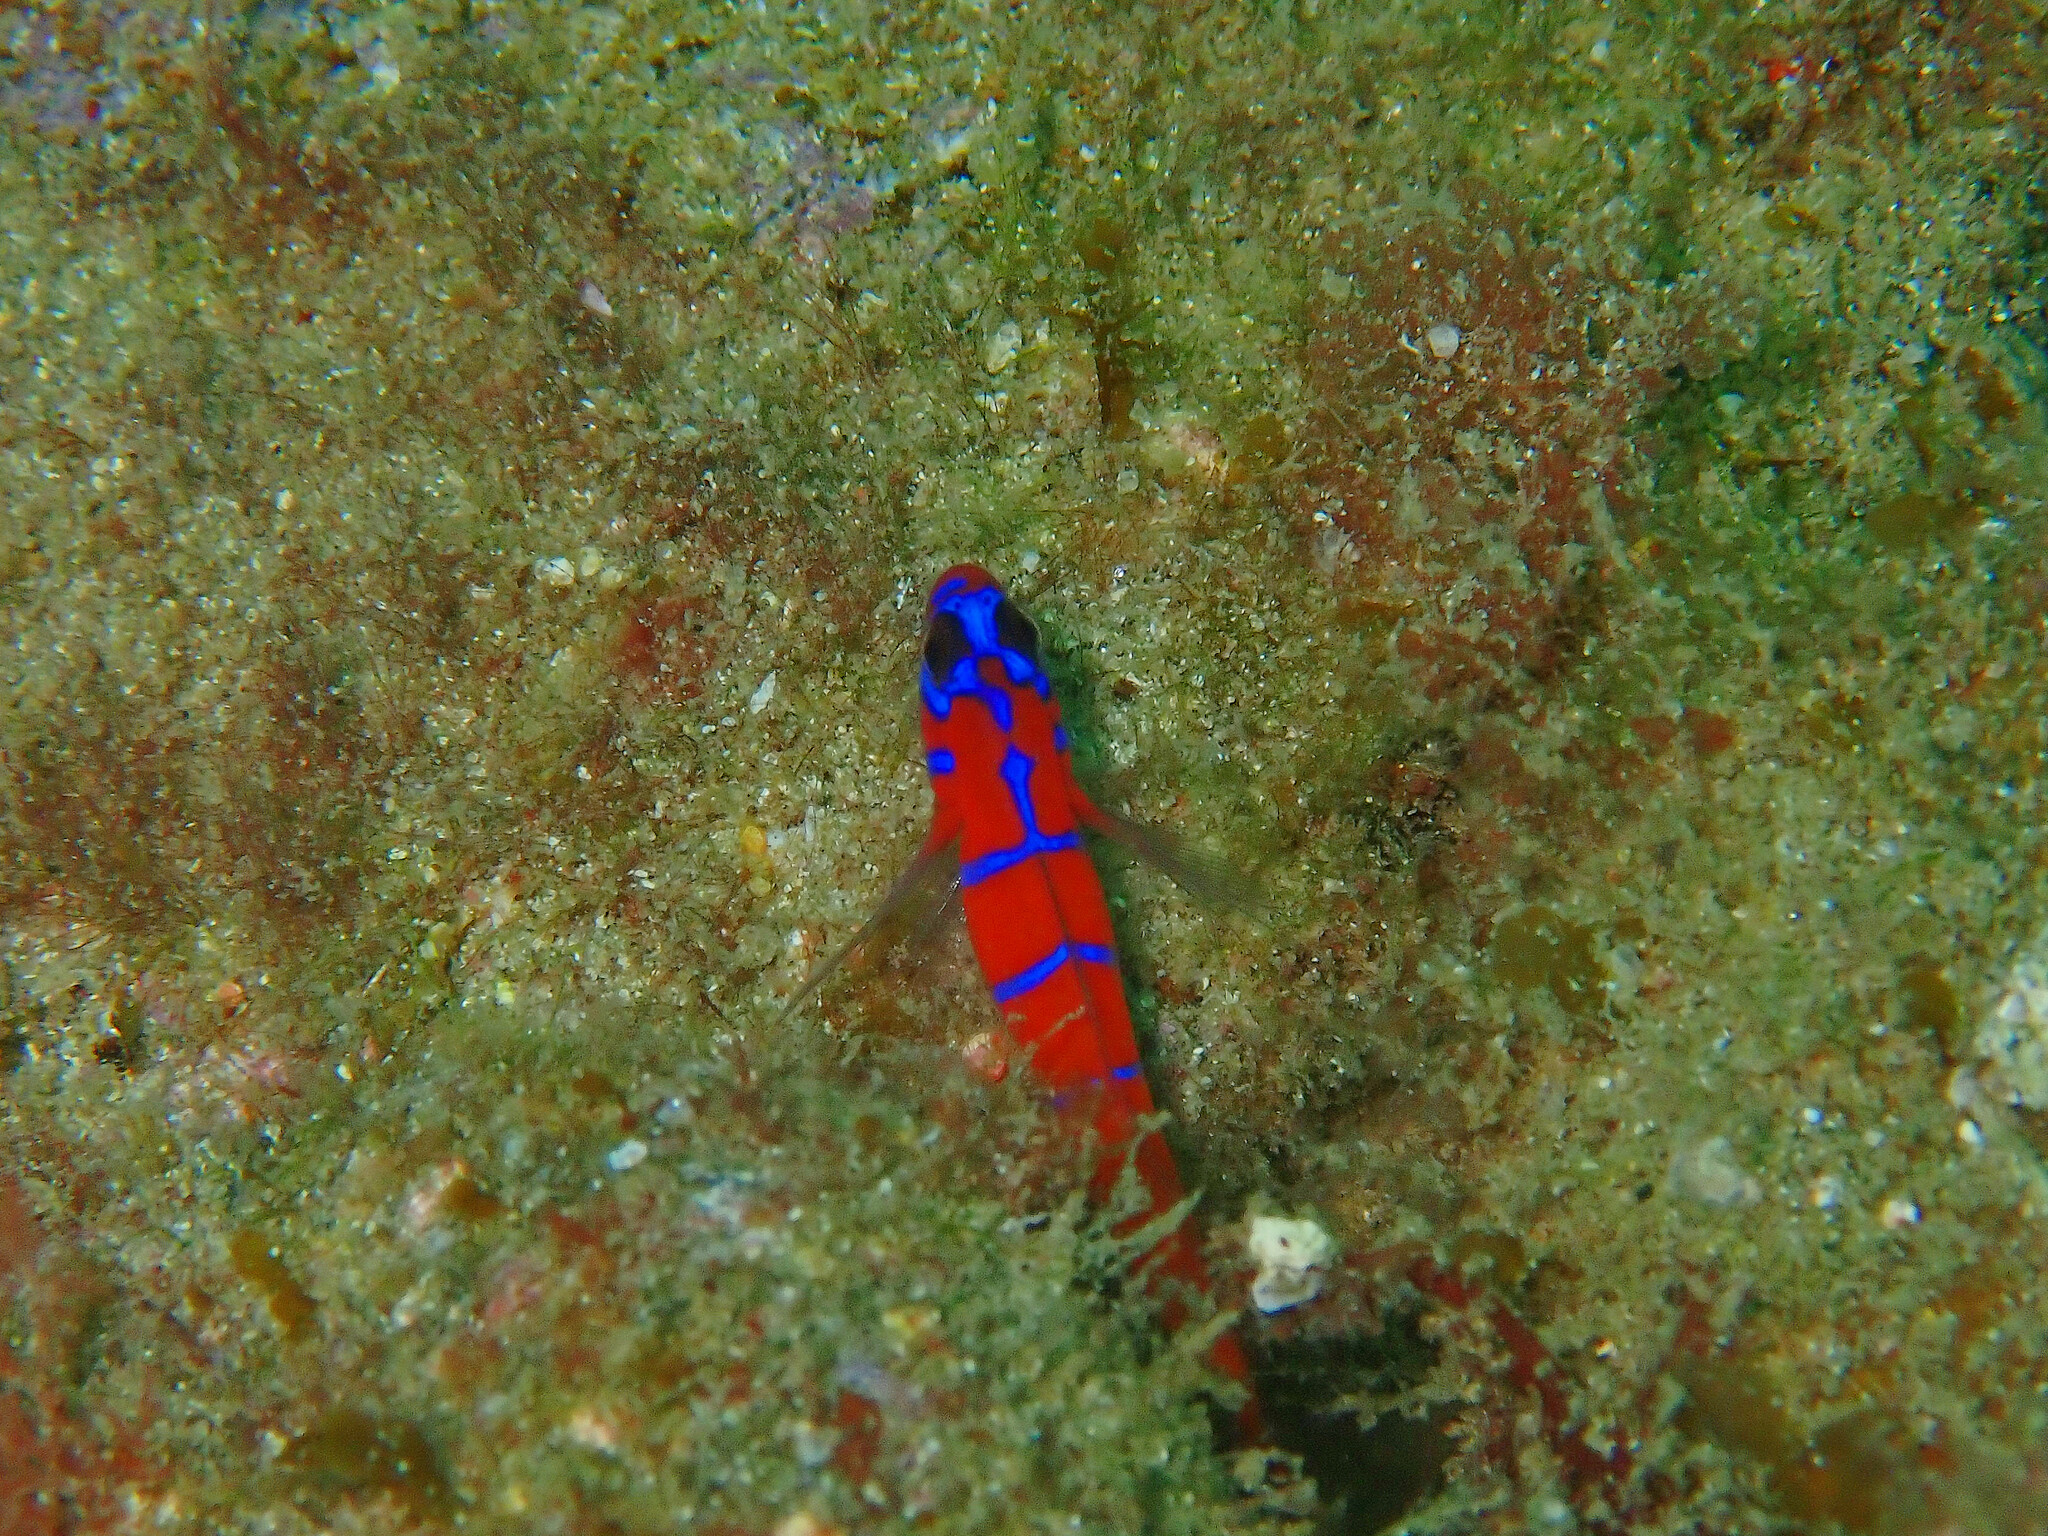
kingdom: Animalia
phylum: Chordata
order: Perciformes
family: Gobiidae
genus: Lythrypnus
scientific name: Lythrypnus dalli
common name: Bluebanded goby
